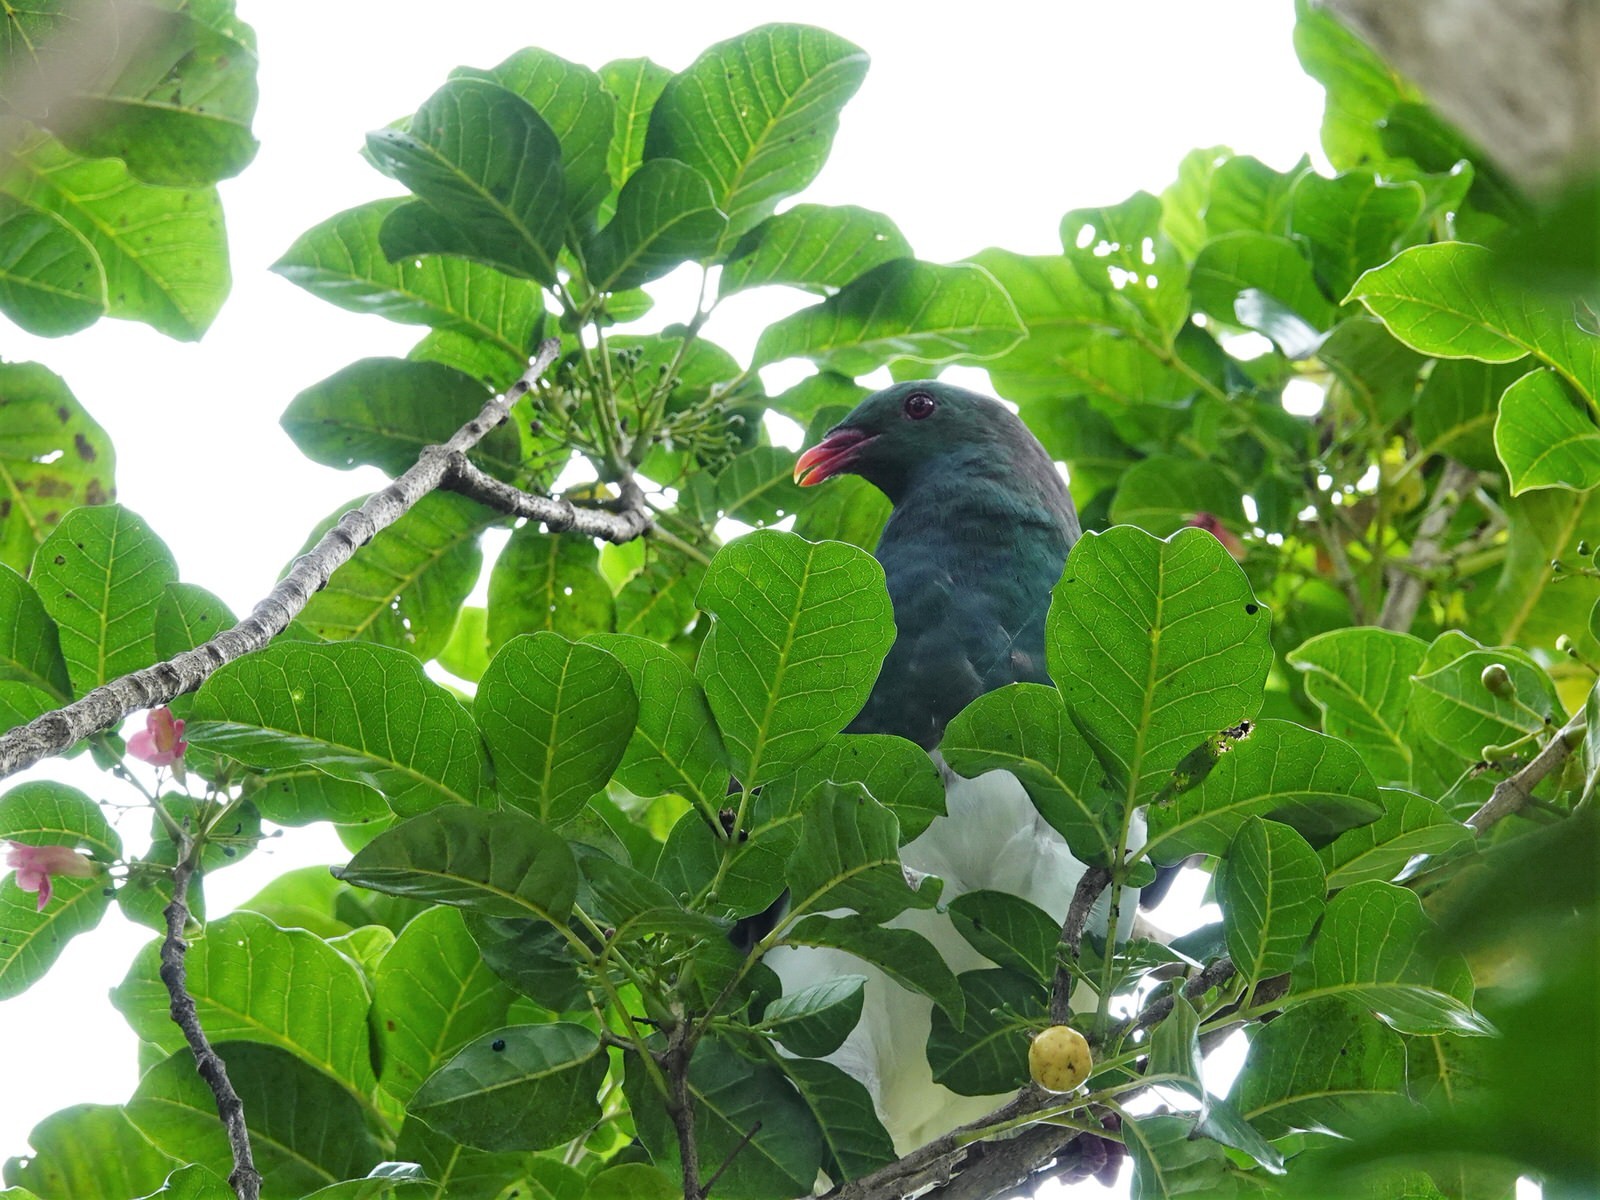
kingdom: Animalia
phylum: Chordata
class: Aves
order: Columbiformes
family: Columbidae
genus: Hemiphaga
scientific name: Hemiphaga novaeseelandiae
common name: New zealand pigeon
